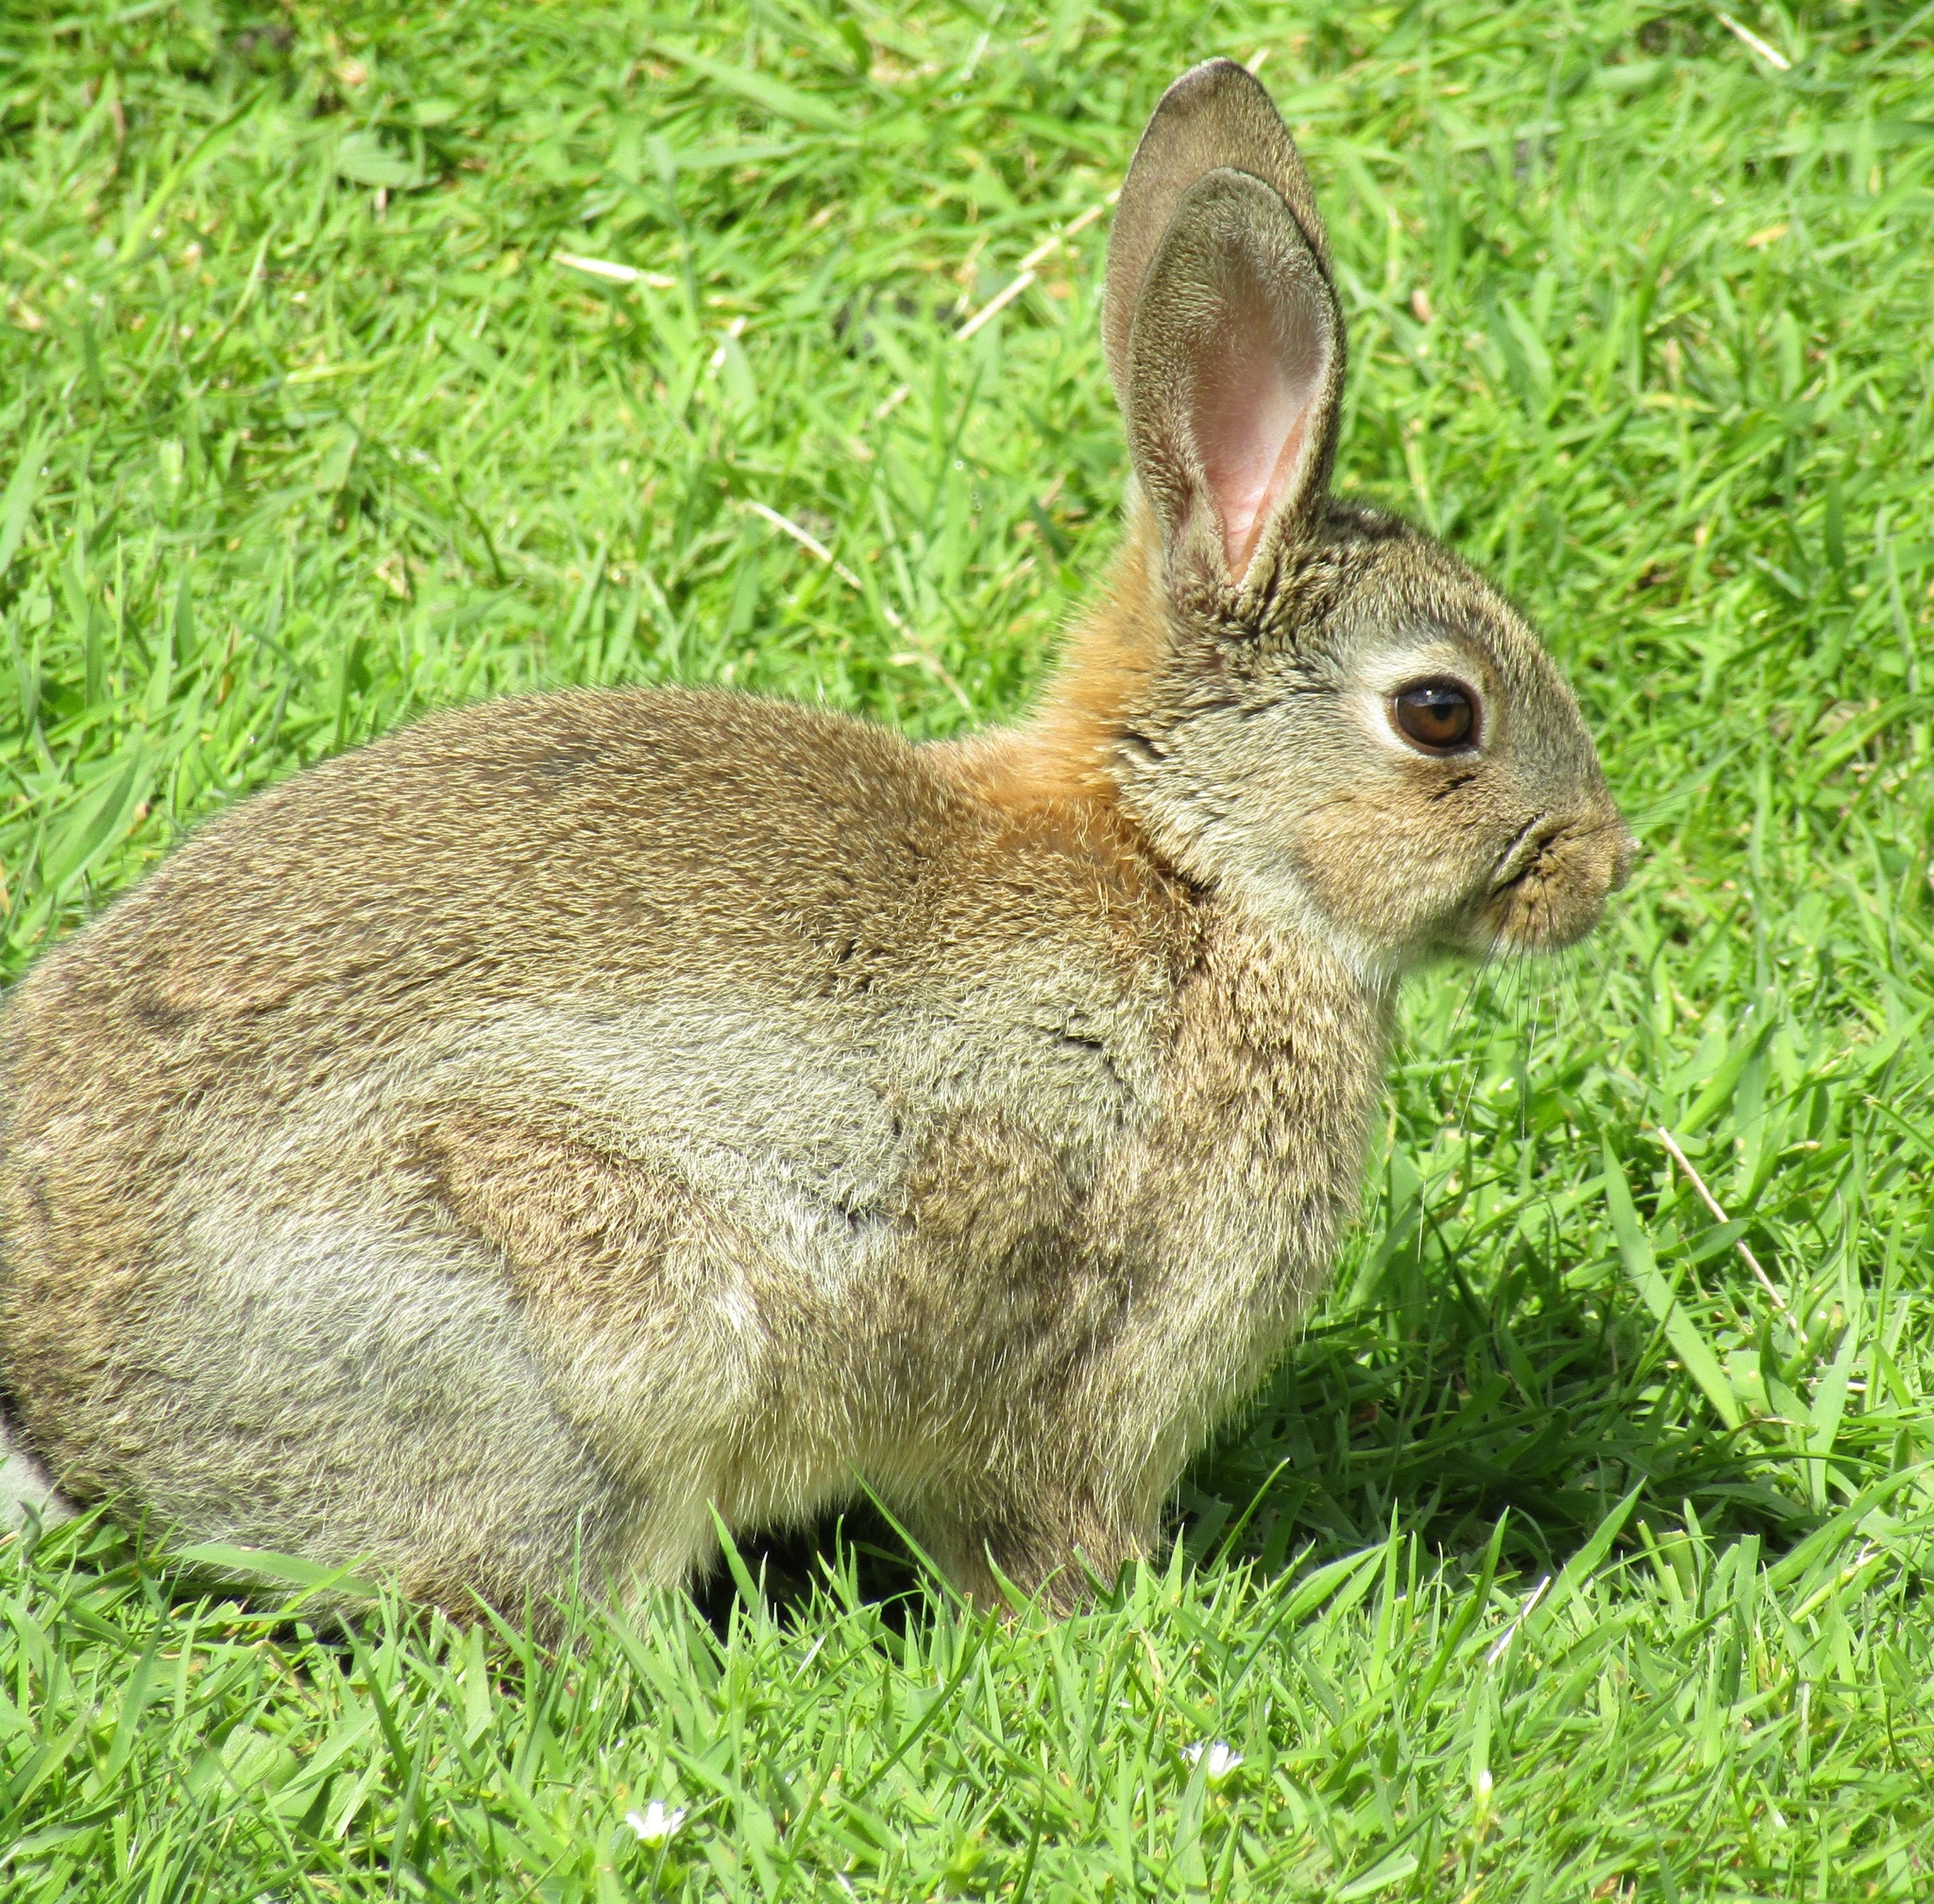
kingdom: Animalia
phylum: Chordata
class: Mammalia
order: Lagomorpha
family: Leporidae
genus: Oryctolagus
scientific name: Oryctolagus cuniculus
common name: European rabbit
